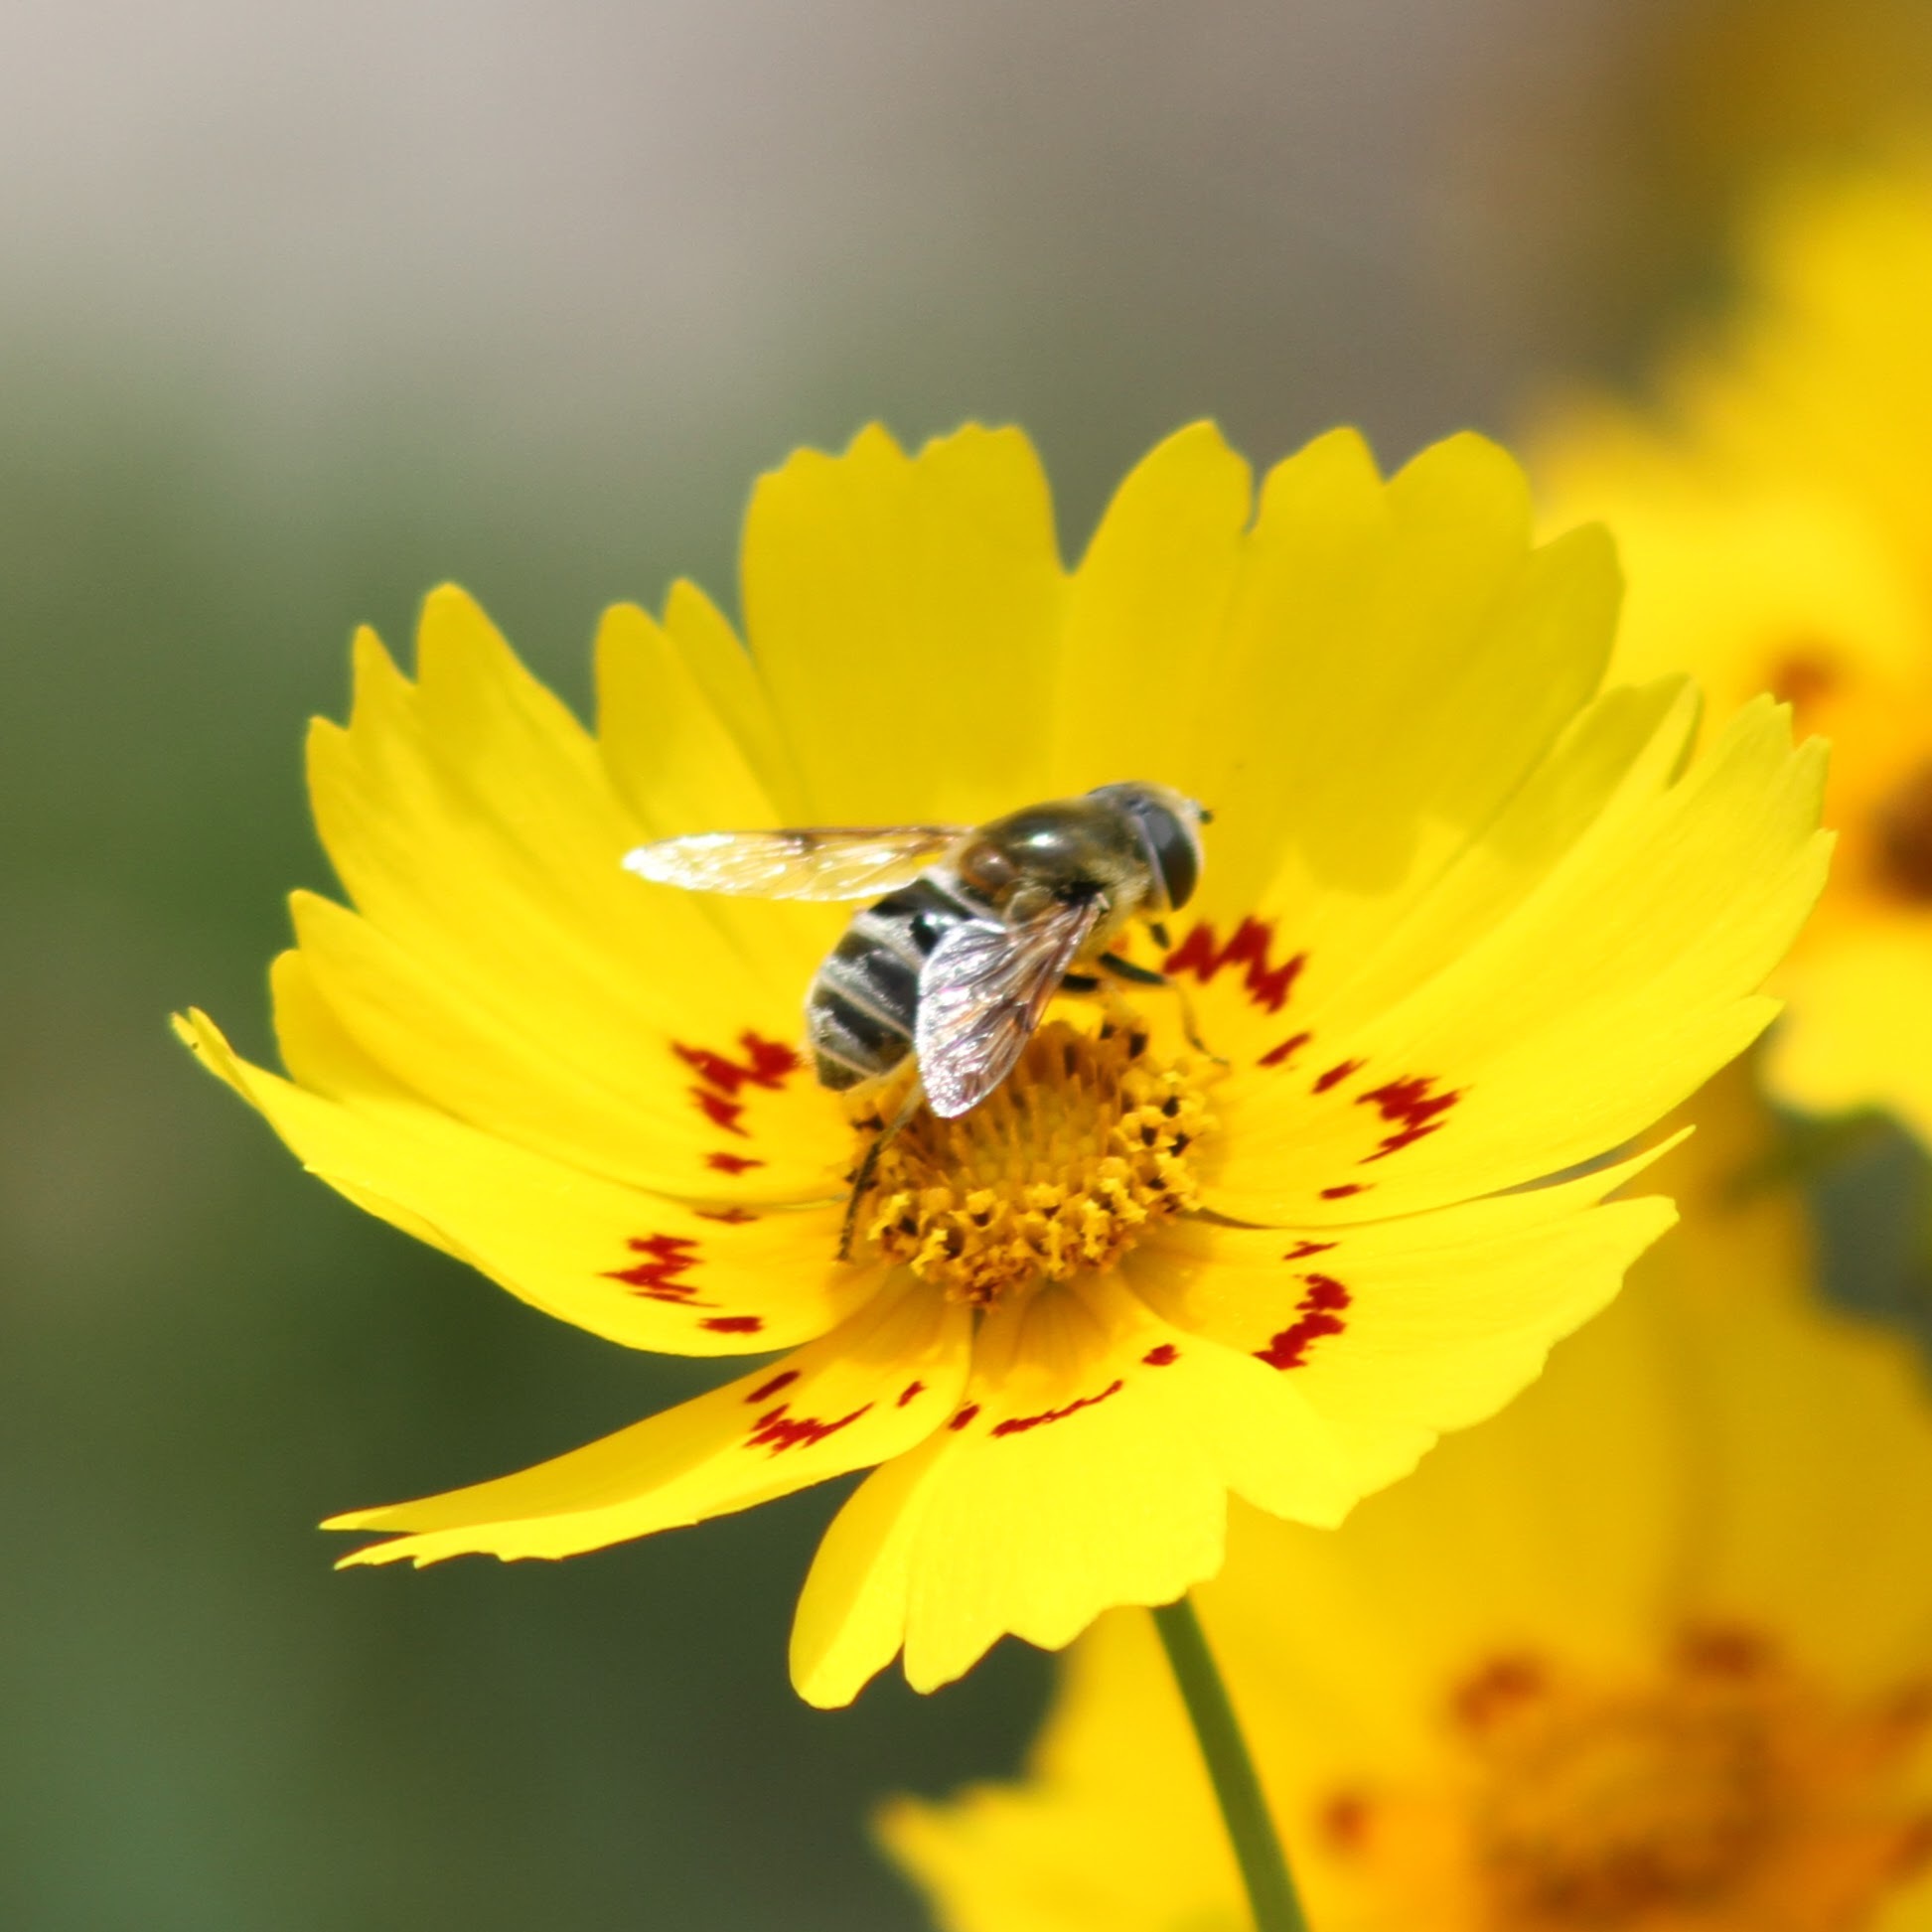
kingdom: Animalia
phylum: Arthropoda
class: Insecta
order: Diptera
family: Syrphidae
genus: Eristalis
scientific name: Eristalis stipator
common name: Yellow-shouldered drone fly
